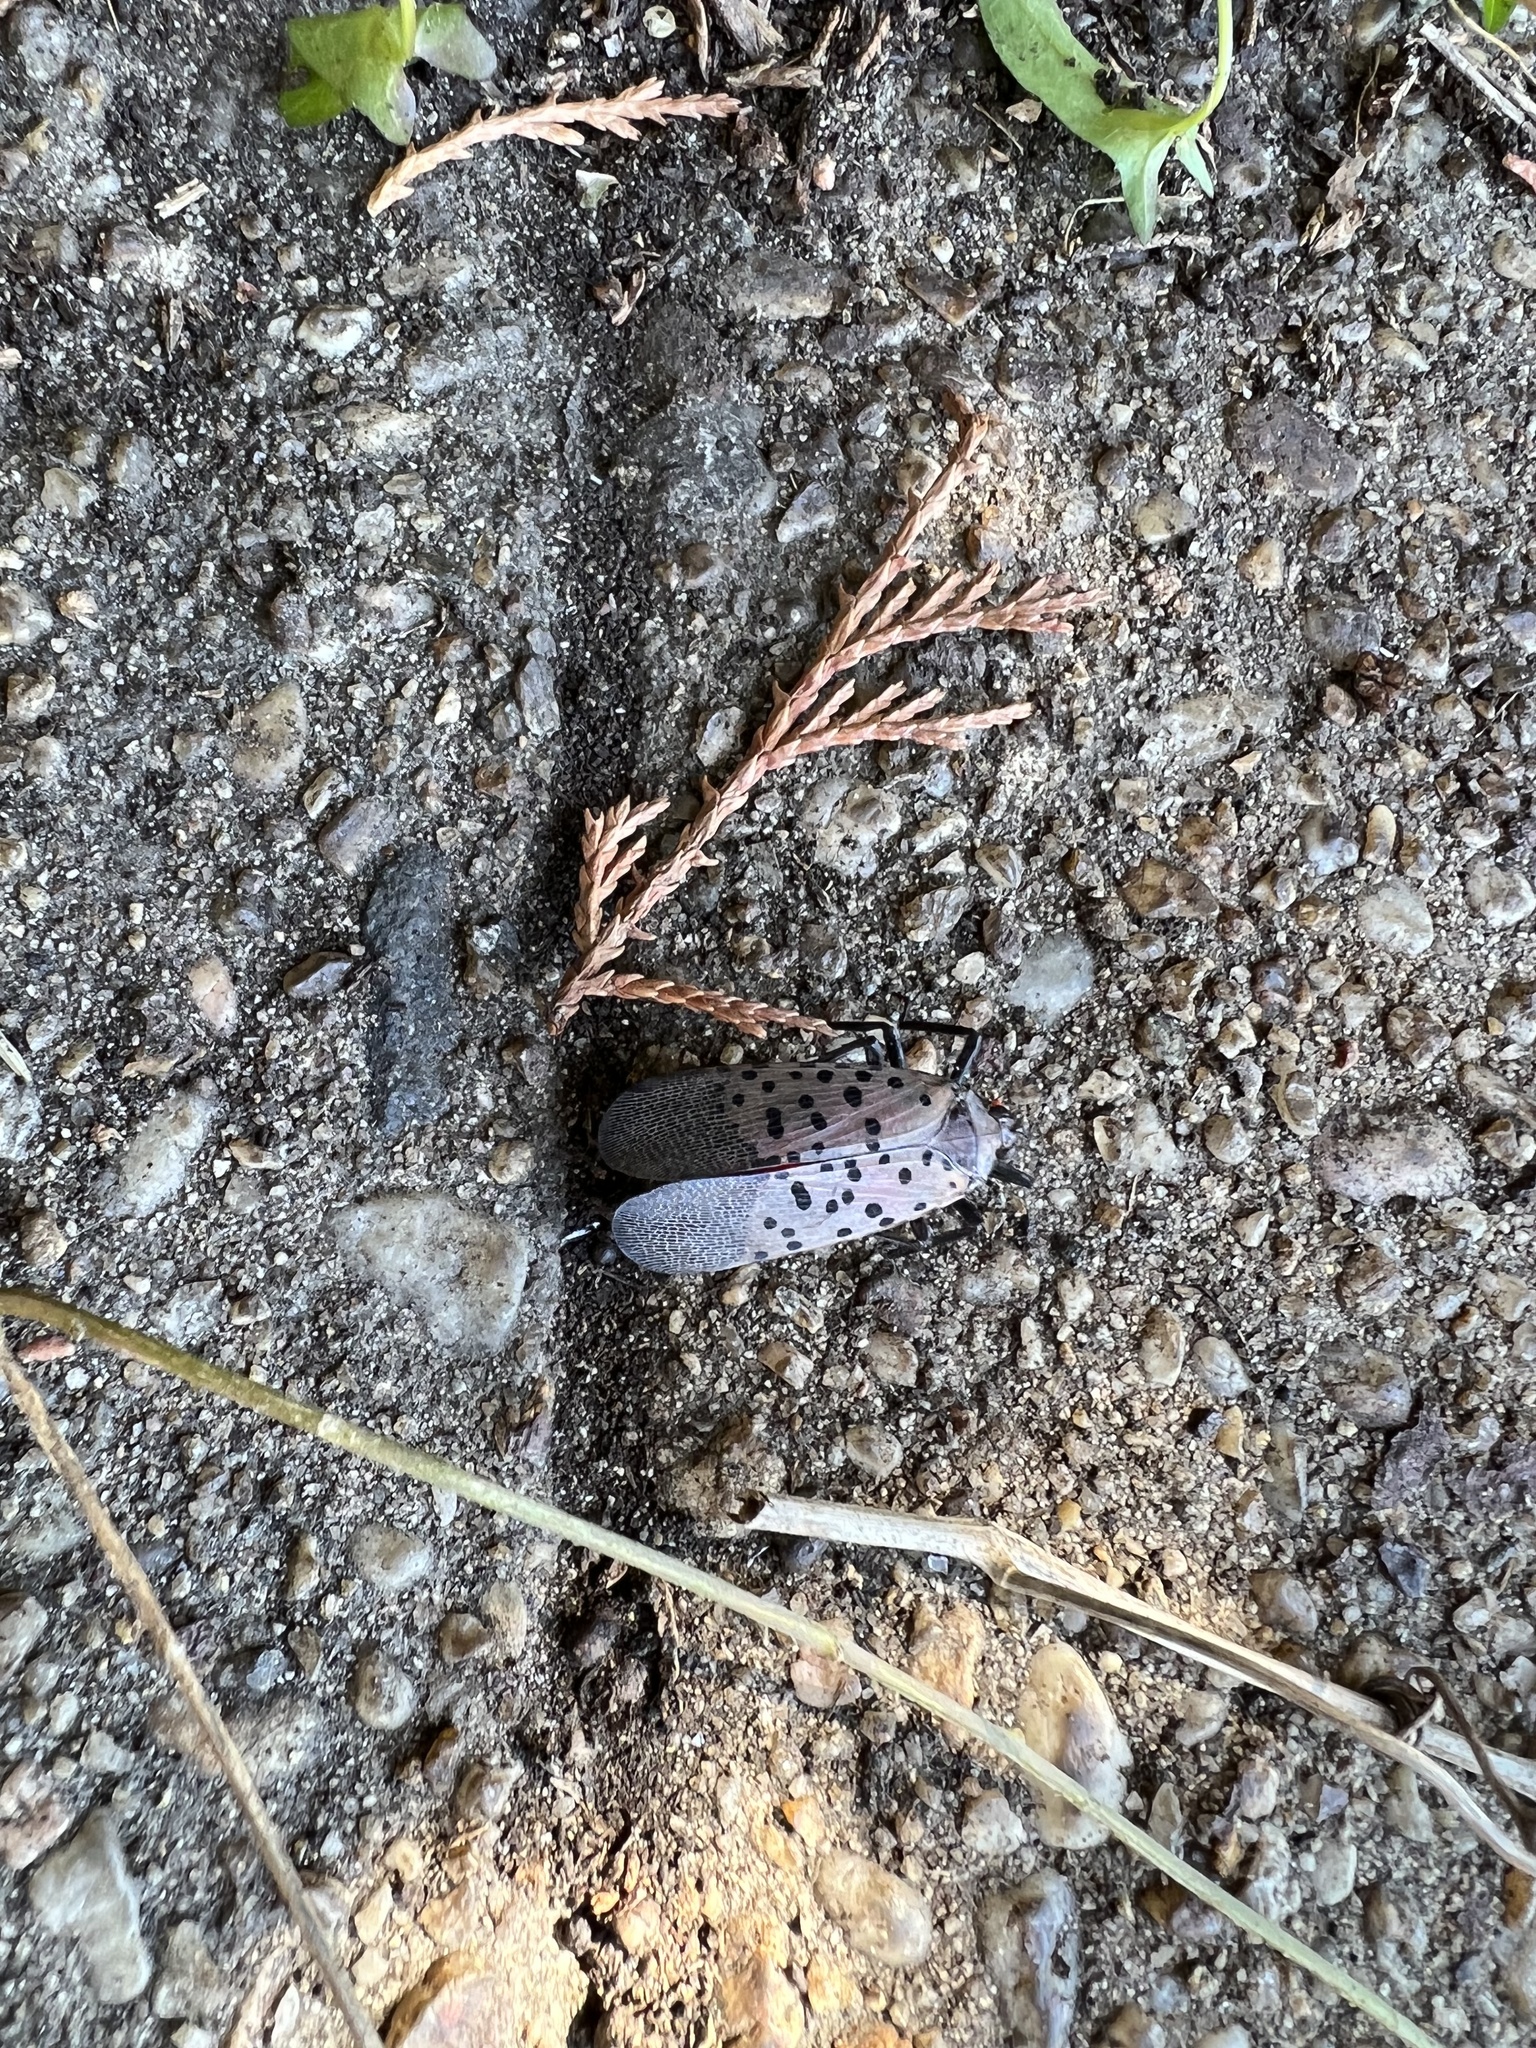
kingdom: Animalia
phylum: Arthropoda
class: Insecta
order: Hemiptera
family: Fulgoridae
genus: Lycorma
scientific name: Lycorma delicatula
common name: Spotted lanternfly
